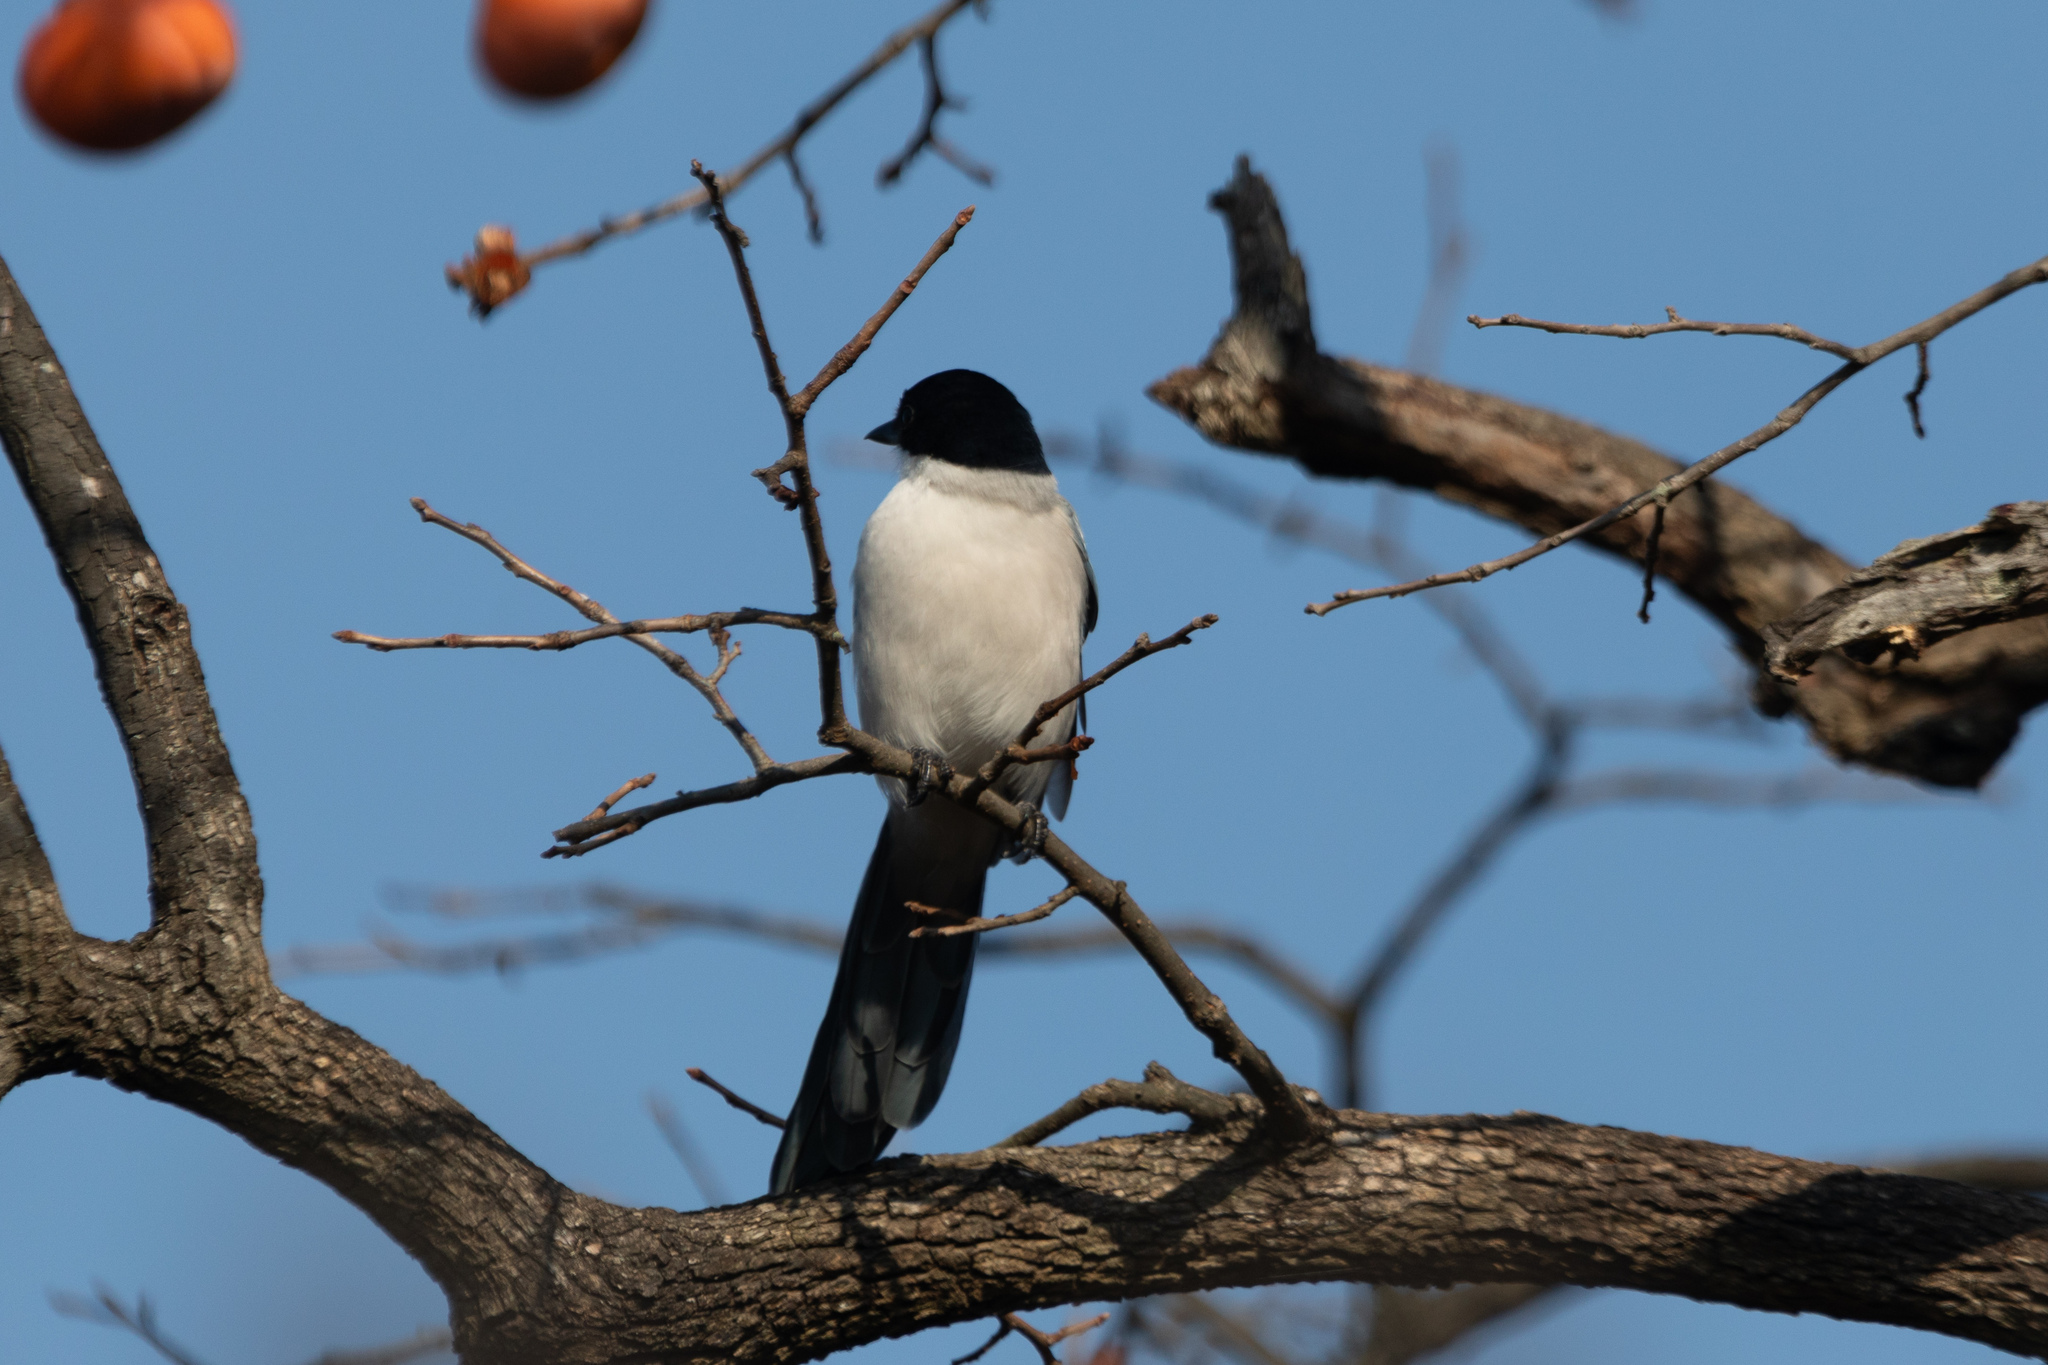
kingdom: Animalia
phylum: Chordata
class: Aves
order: Passeriformes
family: Corvidae
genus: Cyanopica
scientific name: Cyanopica cyanus
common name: Azure-winged magpie
